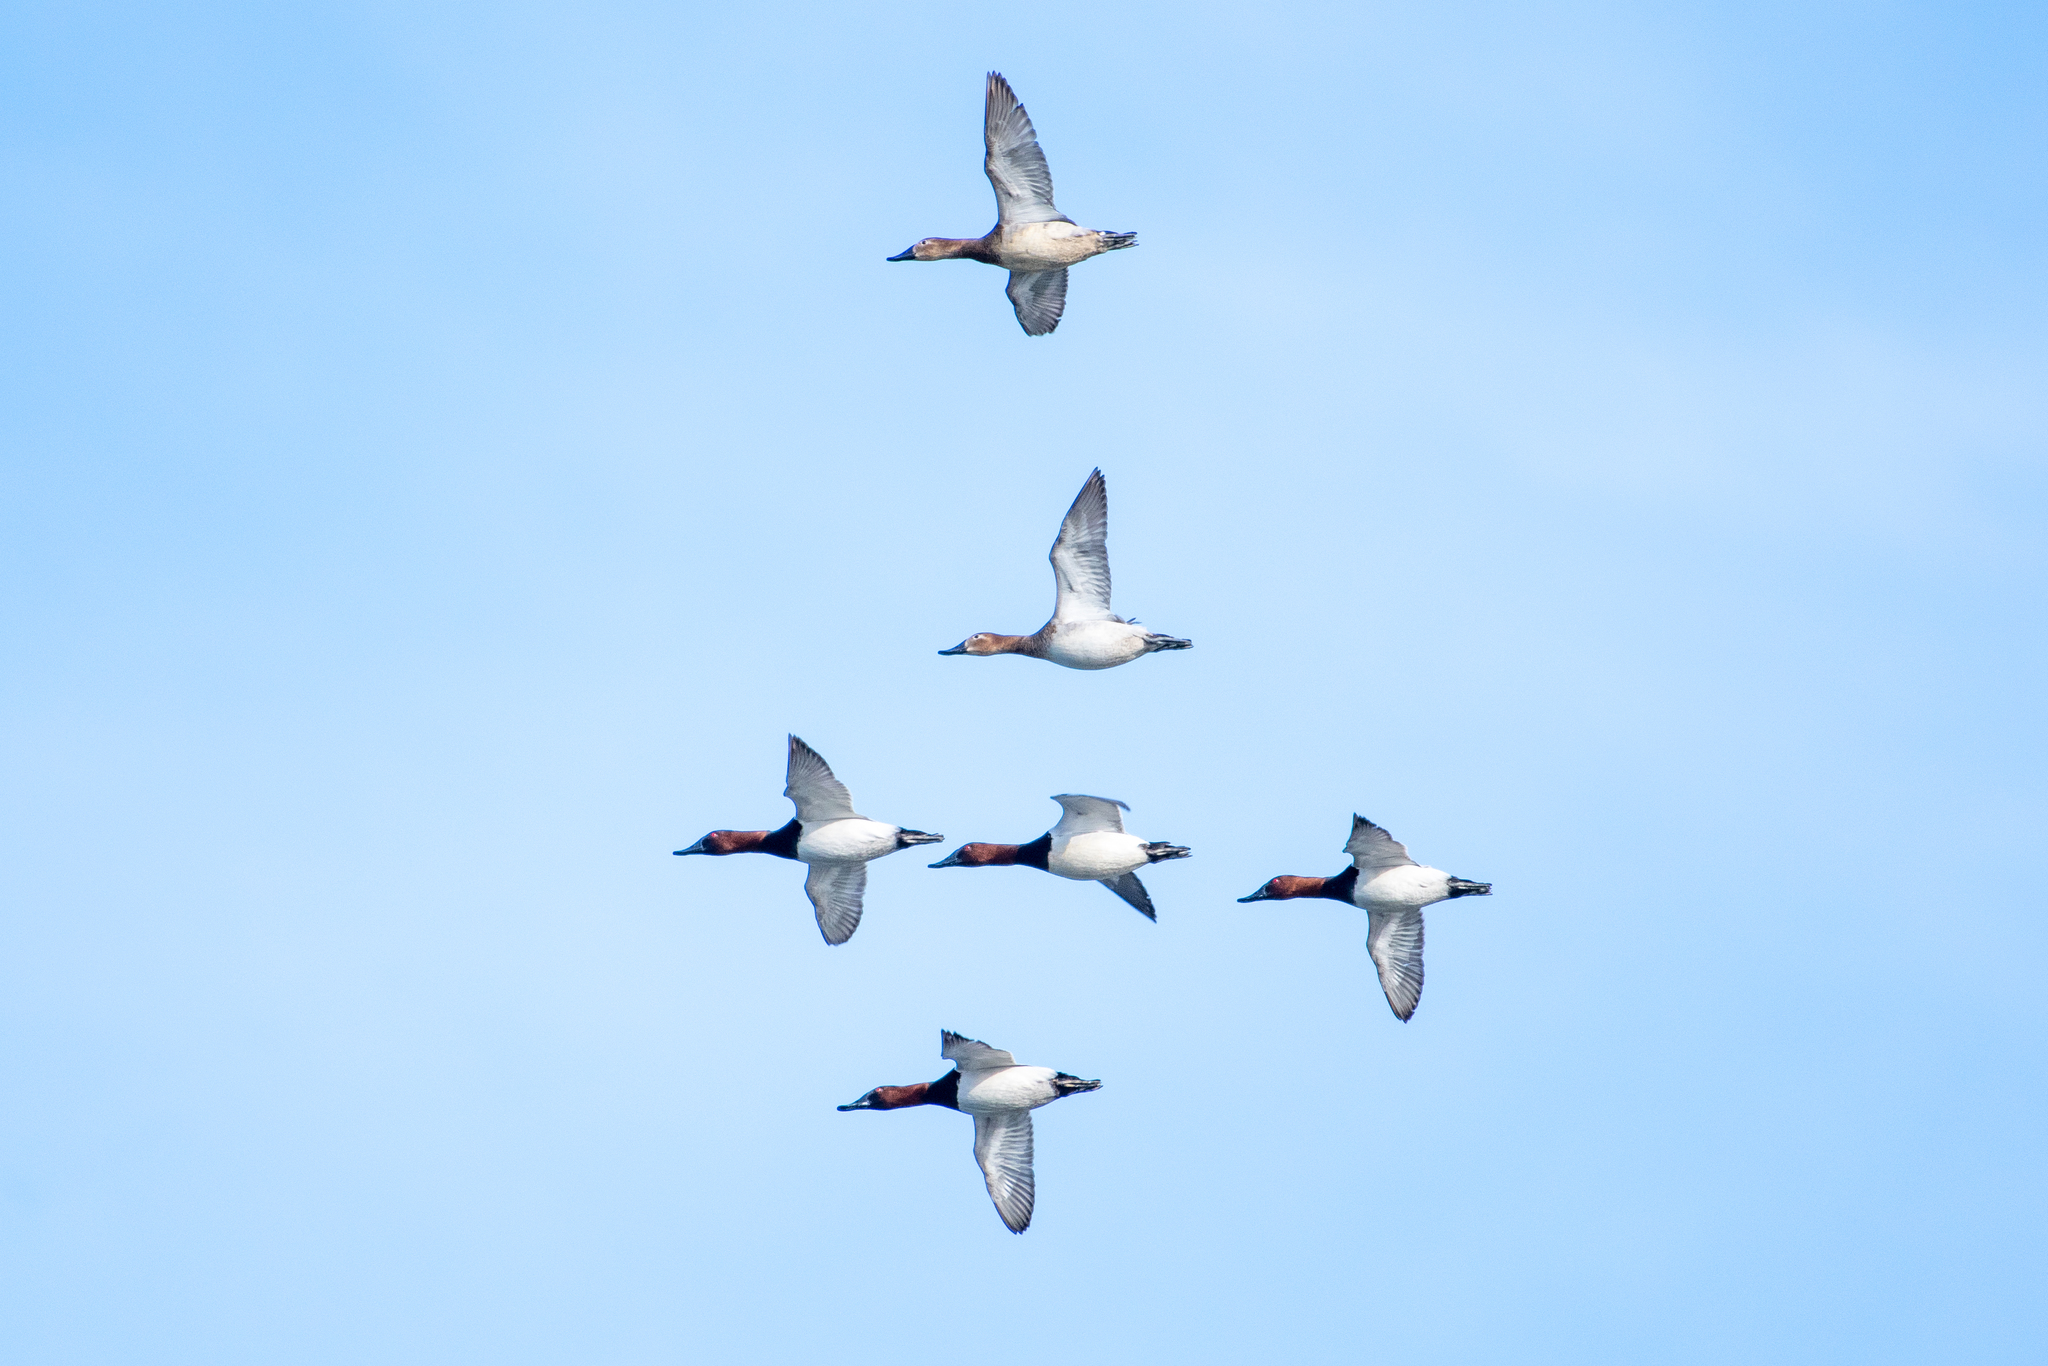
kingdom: Animalia
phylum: Chordata
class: Aves
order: Anseriformes
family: Anatidae
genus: Aythya
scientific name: Aythya valisineria
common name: Canvasback
